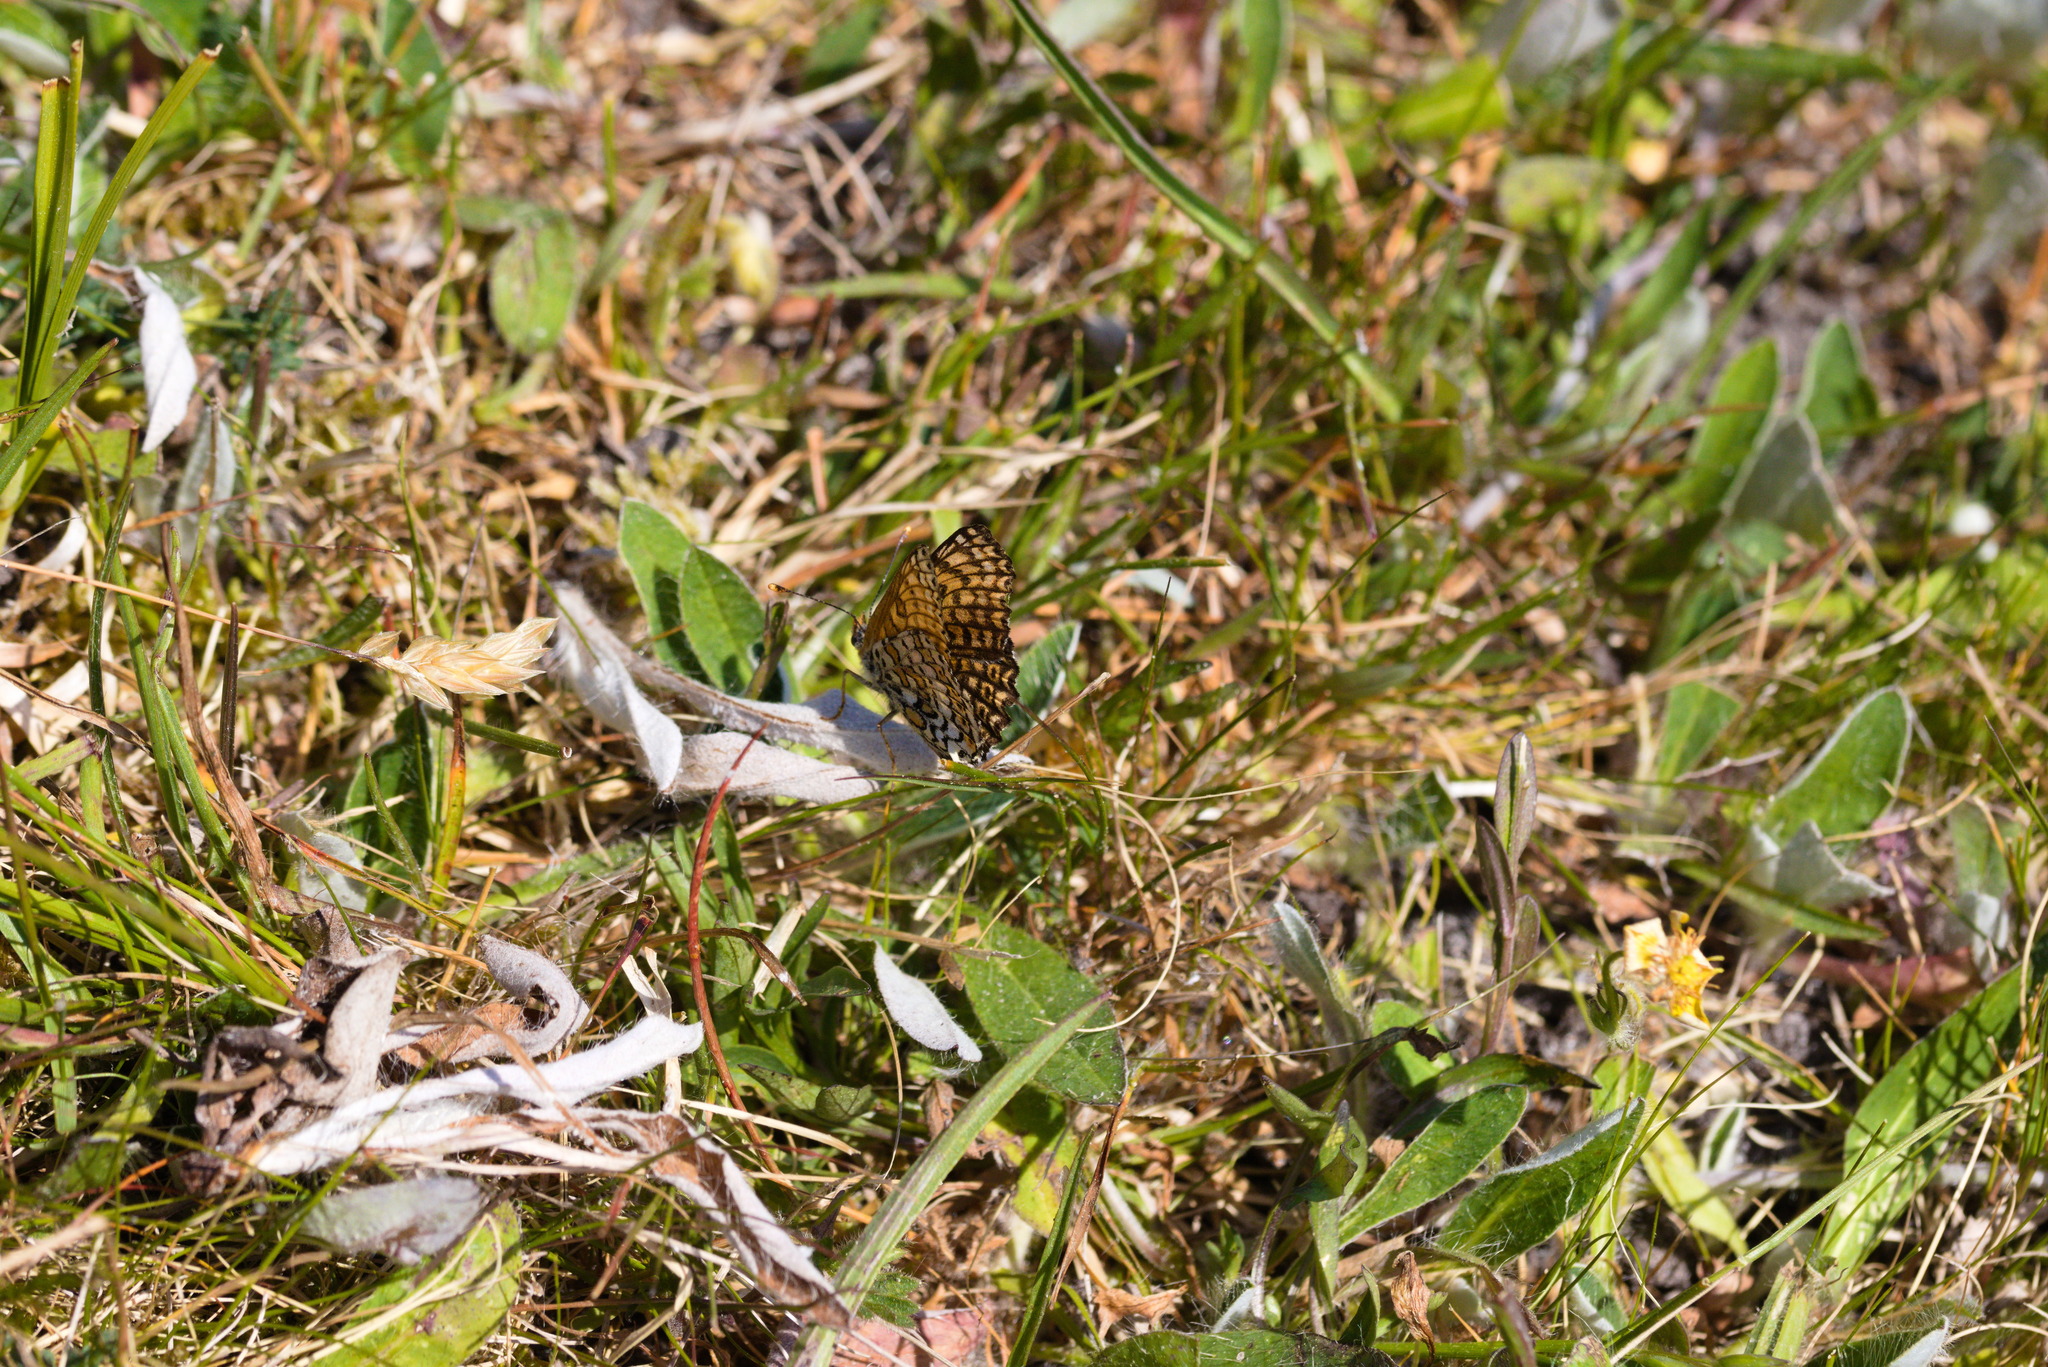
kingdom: Animalia
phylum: Arthropoda
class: Insecta
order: Lepidoptera
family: Nymphalidae
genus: Melitaea
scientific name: Melitaea cinxia
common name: Glanville fritillary
